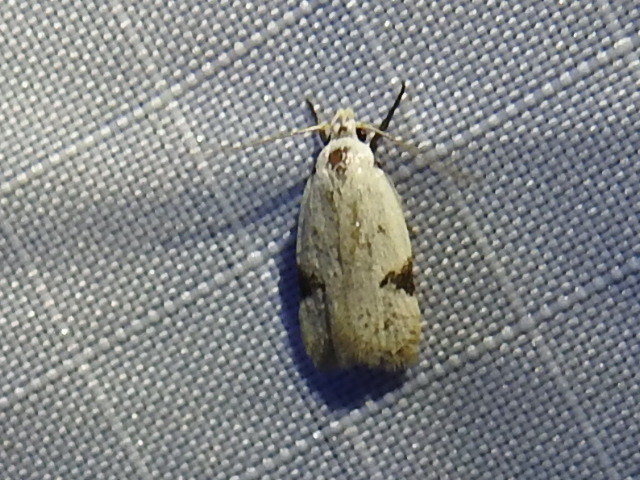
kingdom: Animalia
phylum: Arthropoda
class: Insecta
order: Lepidoptera
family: Oecophoridae
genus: Inga
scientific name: Inga sparsiciliella
